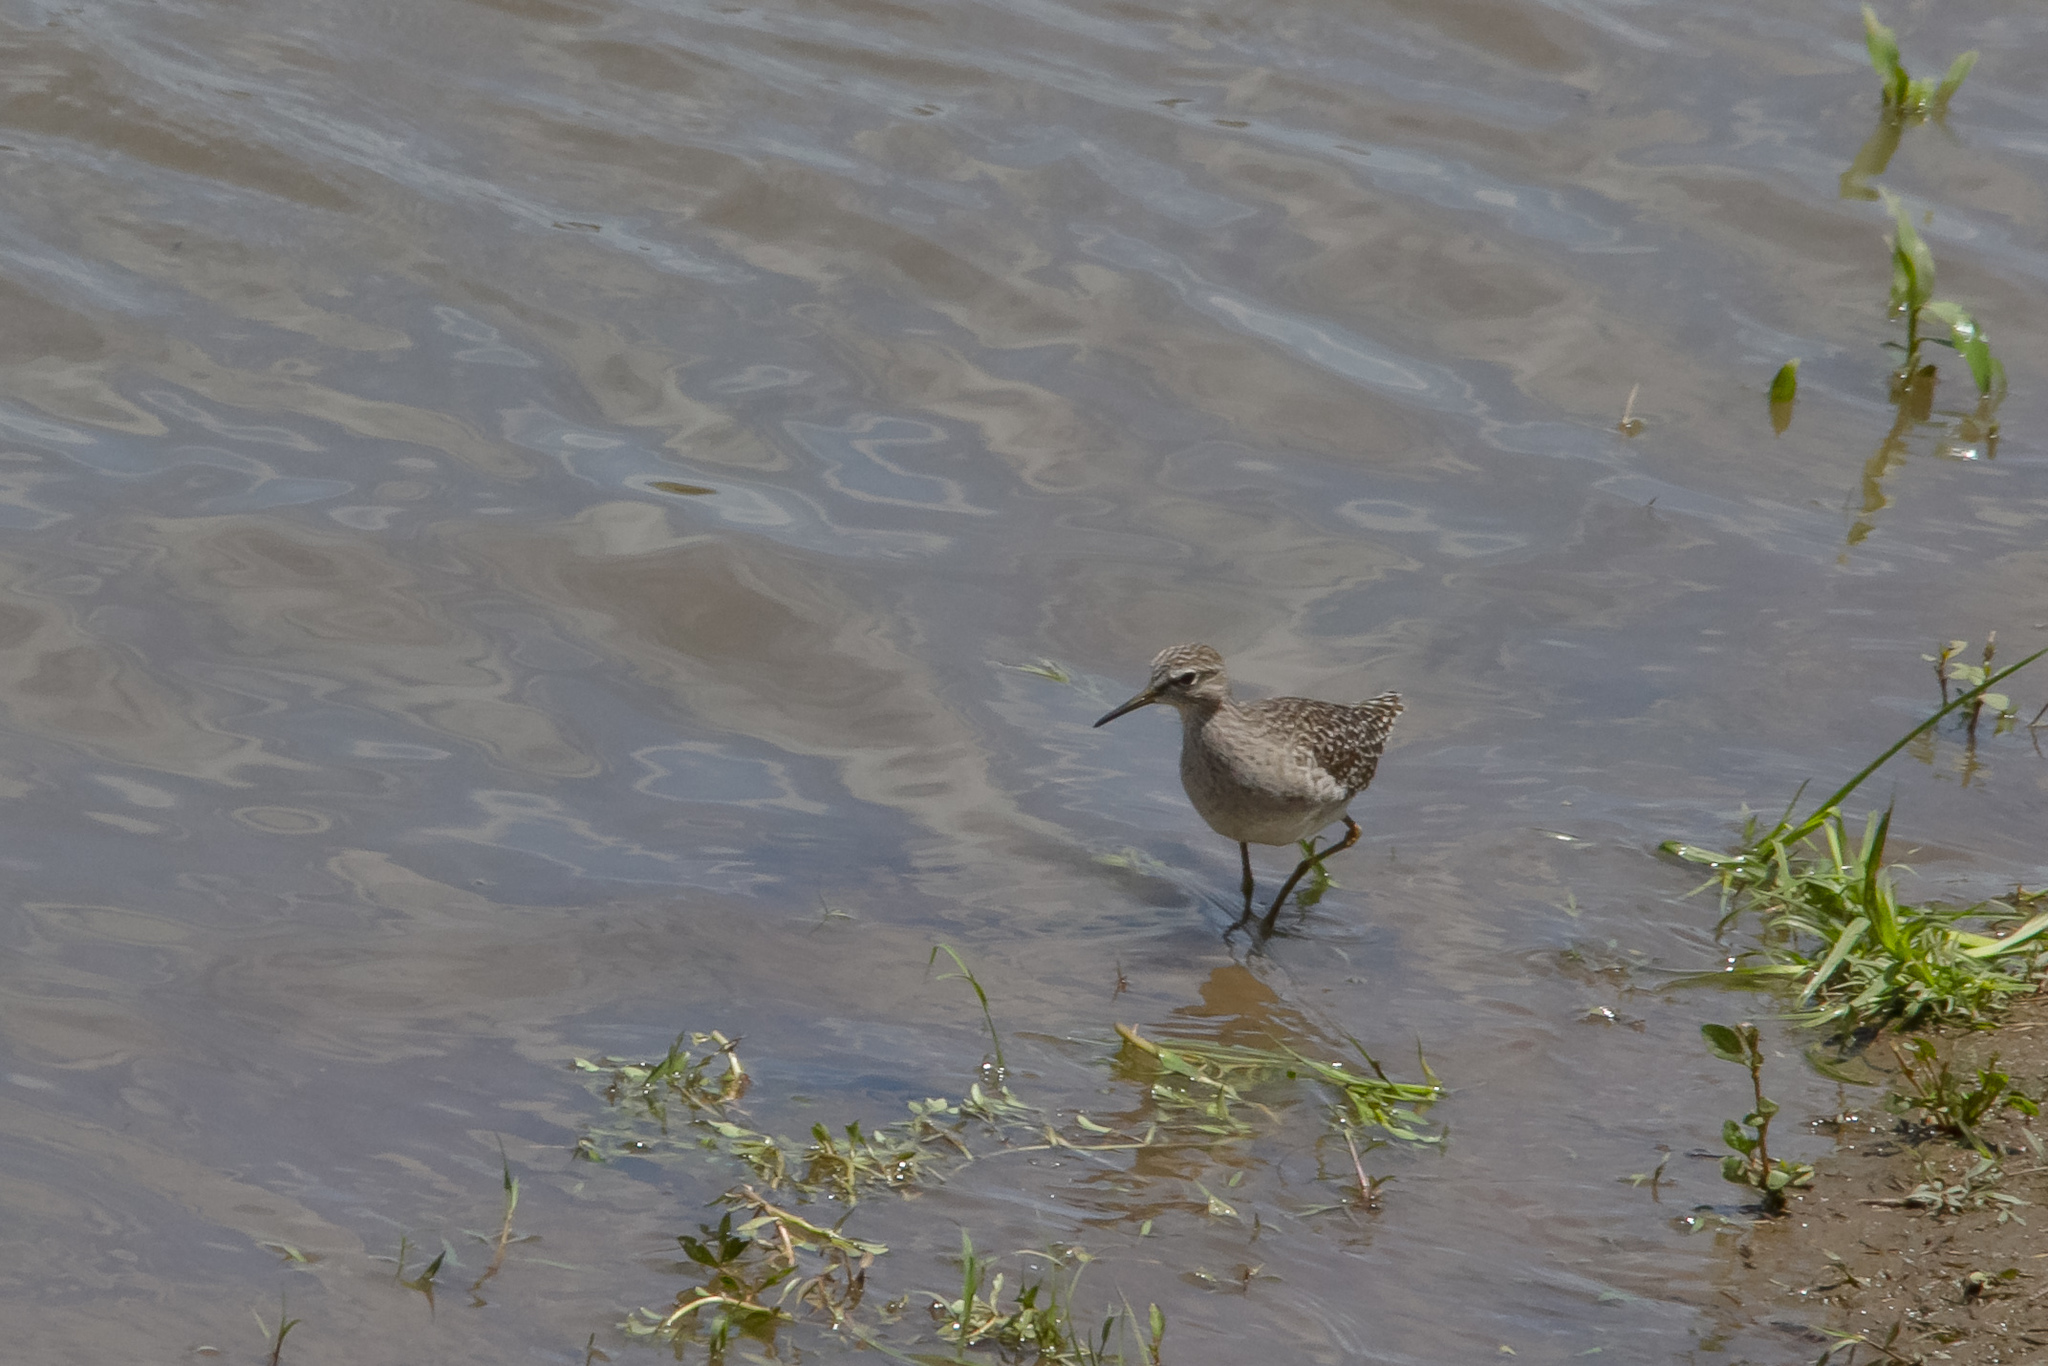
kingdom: Animalia
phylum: Chordata
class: Aves
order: Charadriiformes
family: Scolopacidae
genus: Tringa
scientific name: Tringa glareola
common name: Wood sandpiper
